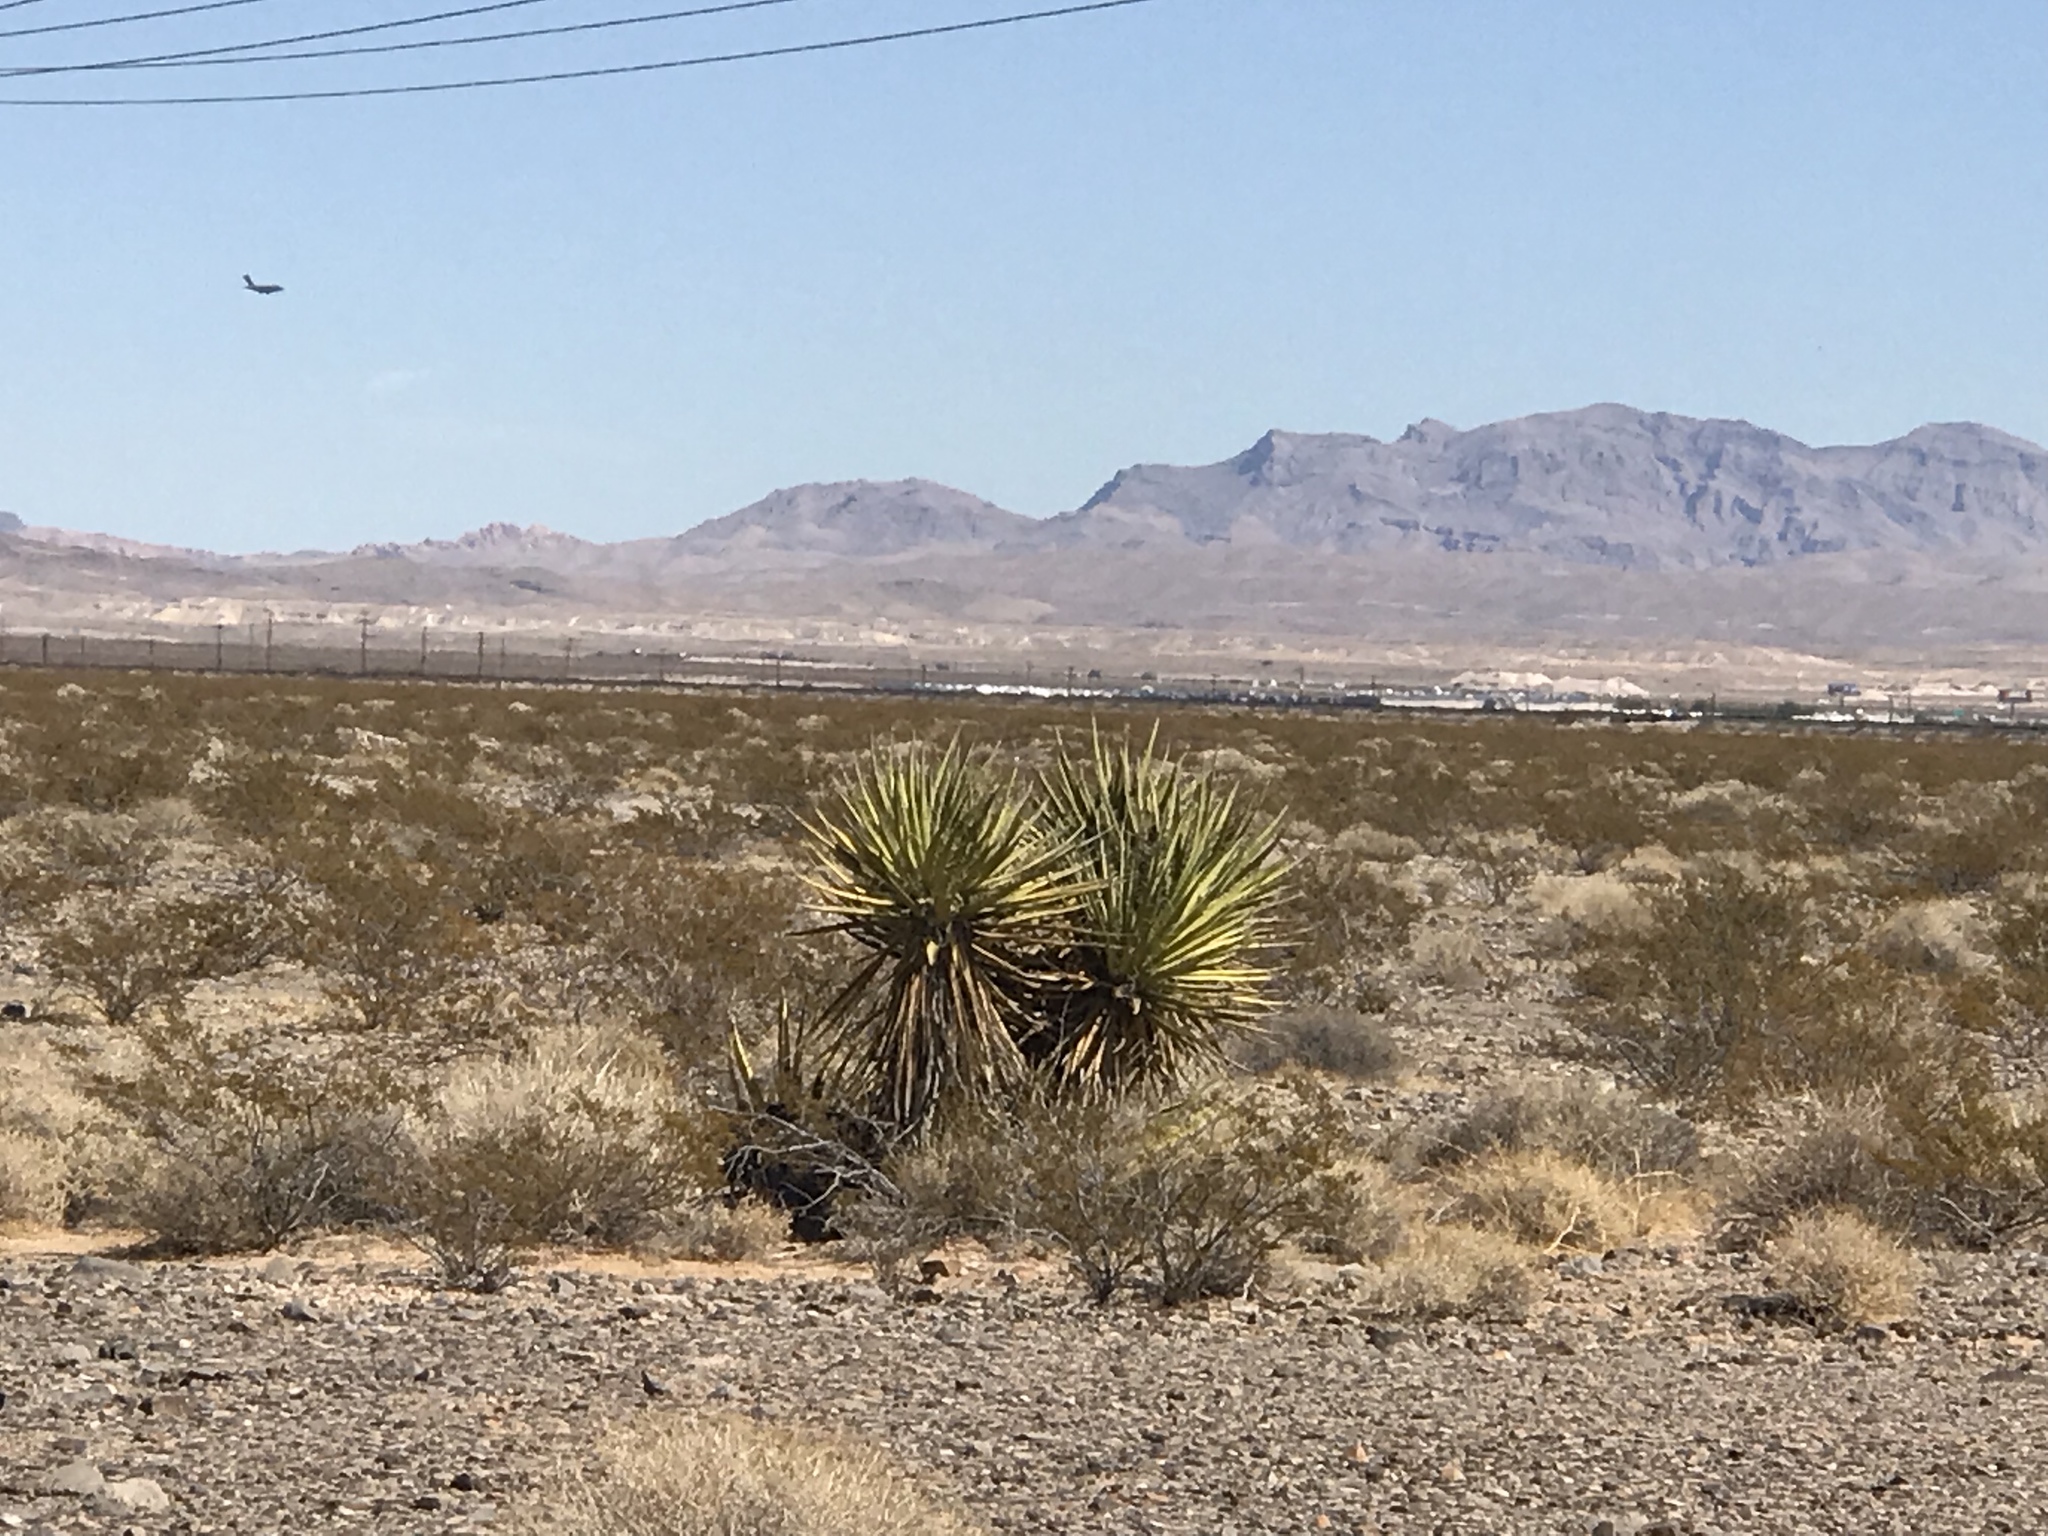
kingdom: Plantae
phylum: Tracheophyta
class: Liliopsida
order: Asparagales
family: Asparagaceae
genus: Yucca
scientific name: Yucca schidigera
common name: Mojave yucca
